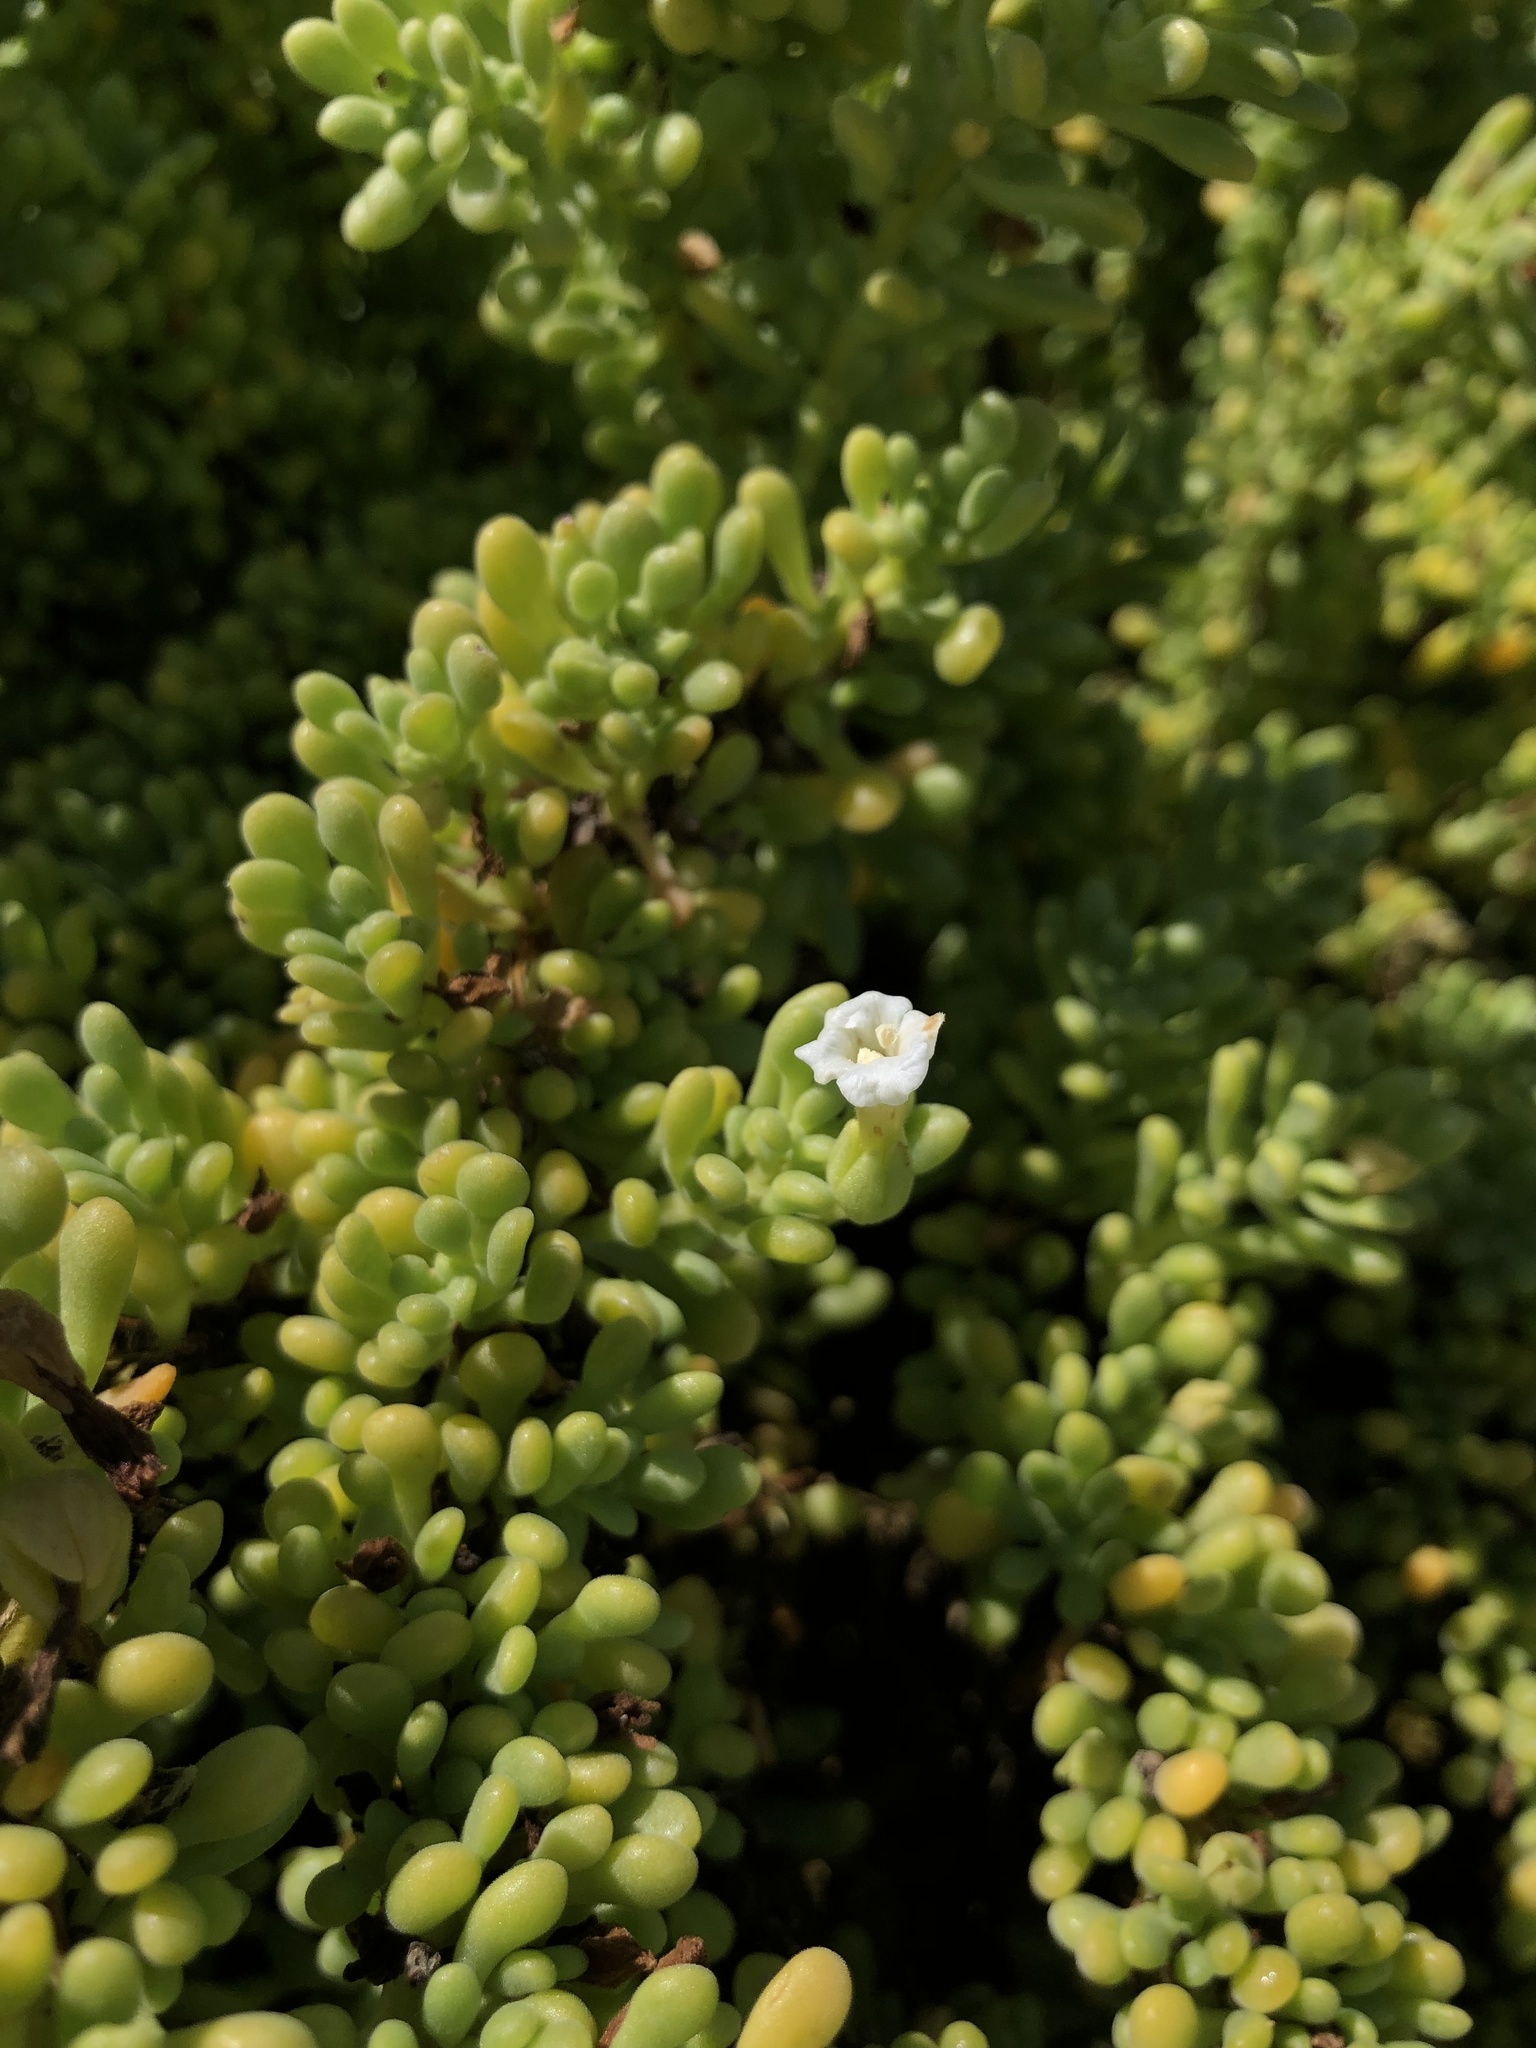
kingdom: Plantae
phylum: Tracheophyta
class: Magnoliopsida
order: Solanales
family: Solanaceae
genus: Nolana
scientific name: Nolana galapagensis
